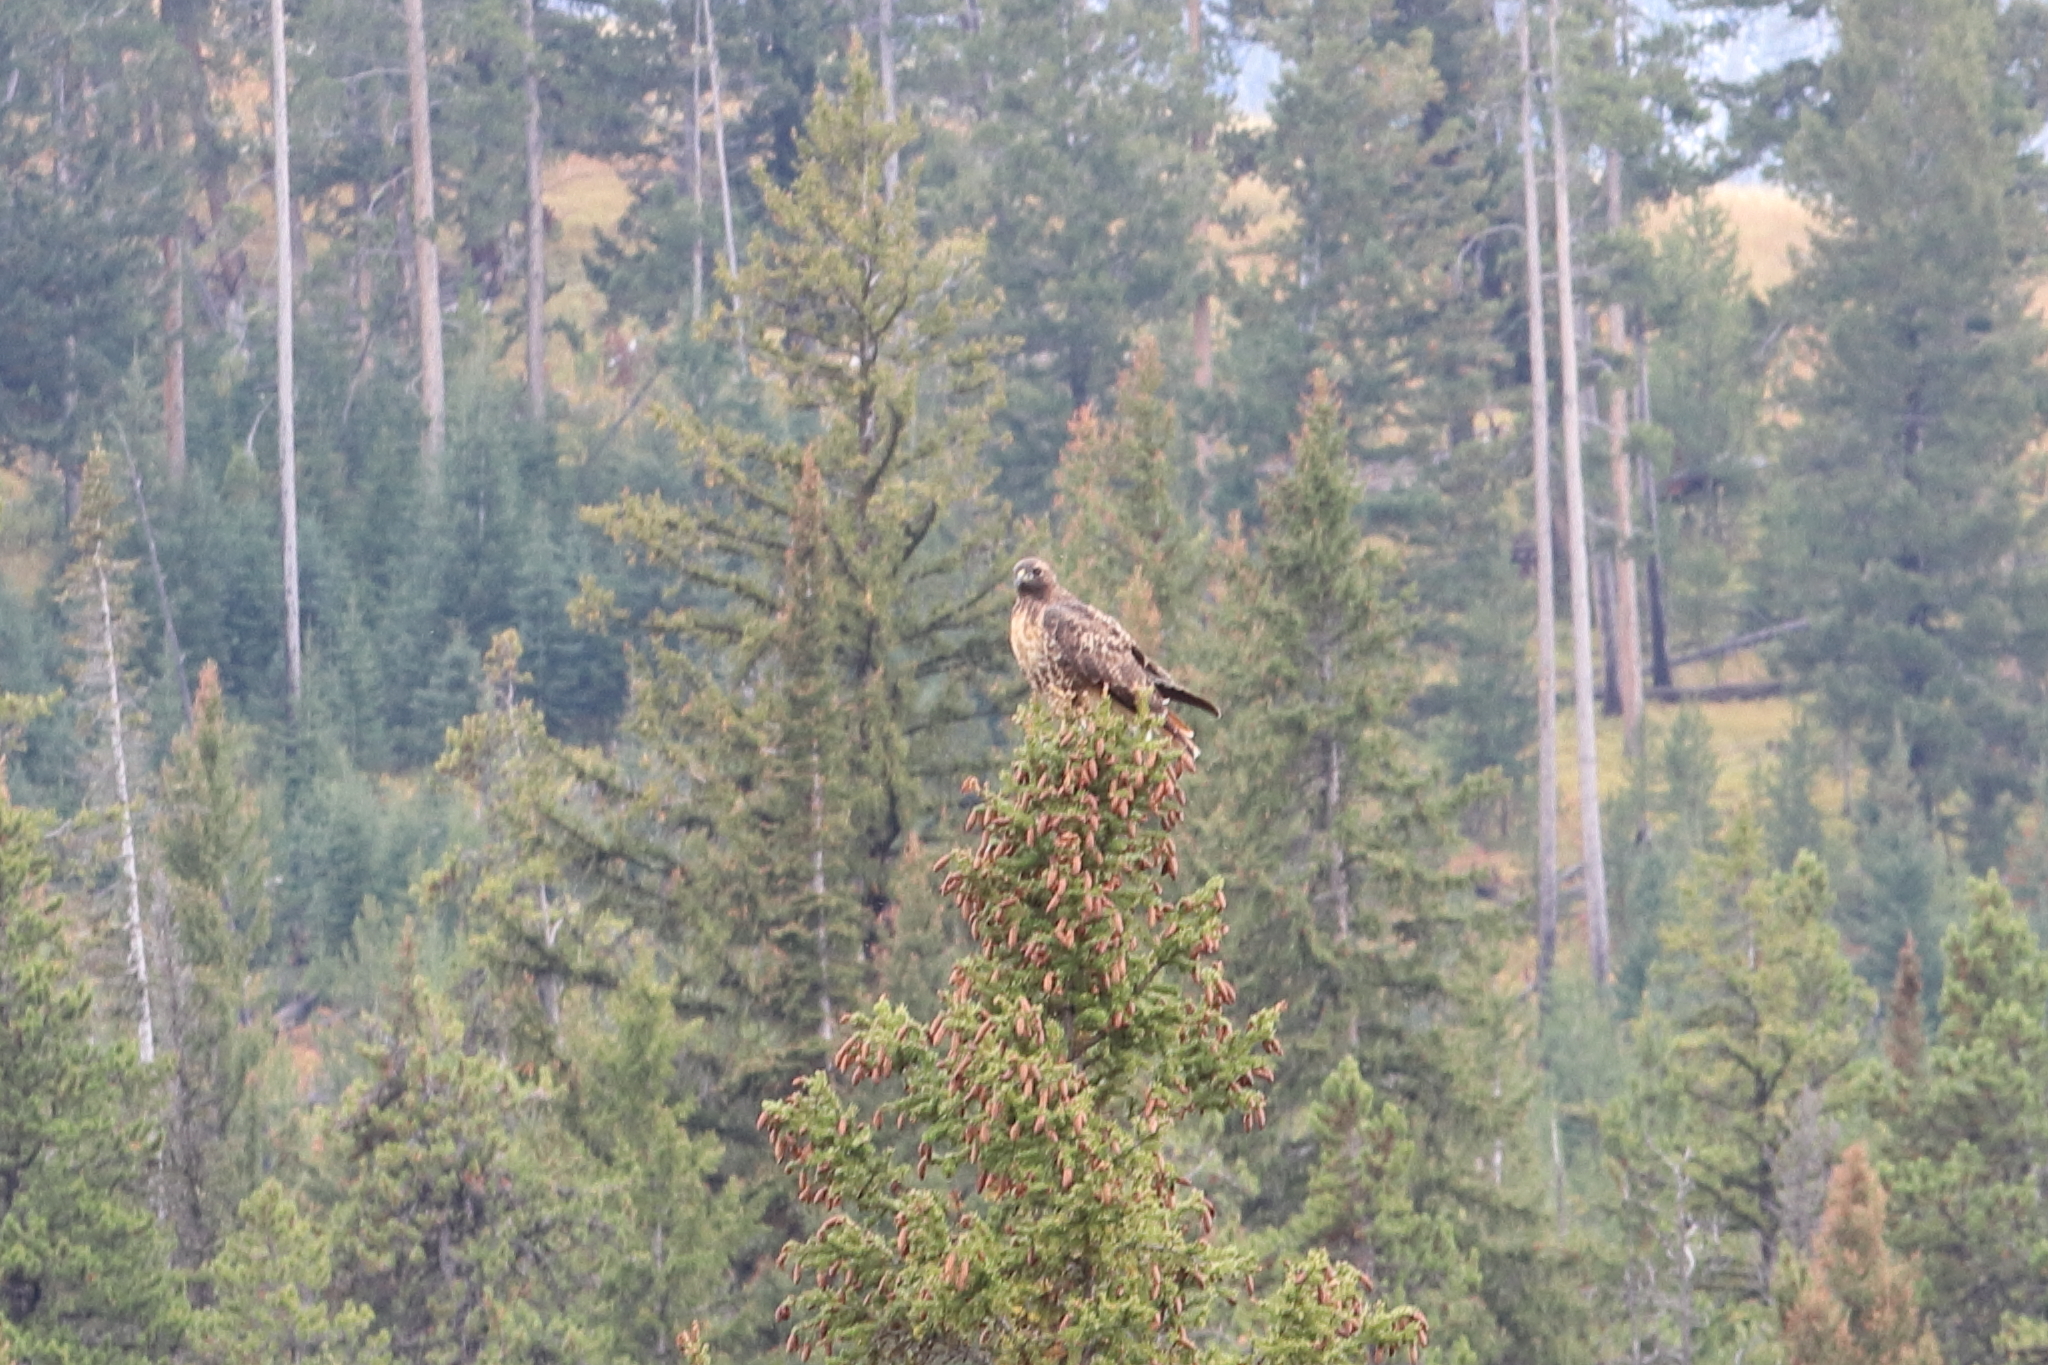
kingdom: Animalia
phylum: Chordata
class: Aves
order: Accipitriformes
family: Accipitridae
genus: Buteo
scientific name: Buteo jamaicensis
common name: Red-tailed hawk
